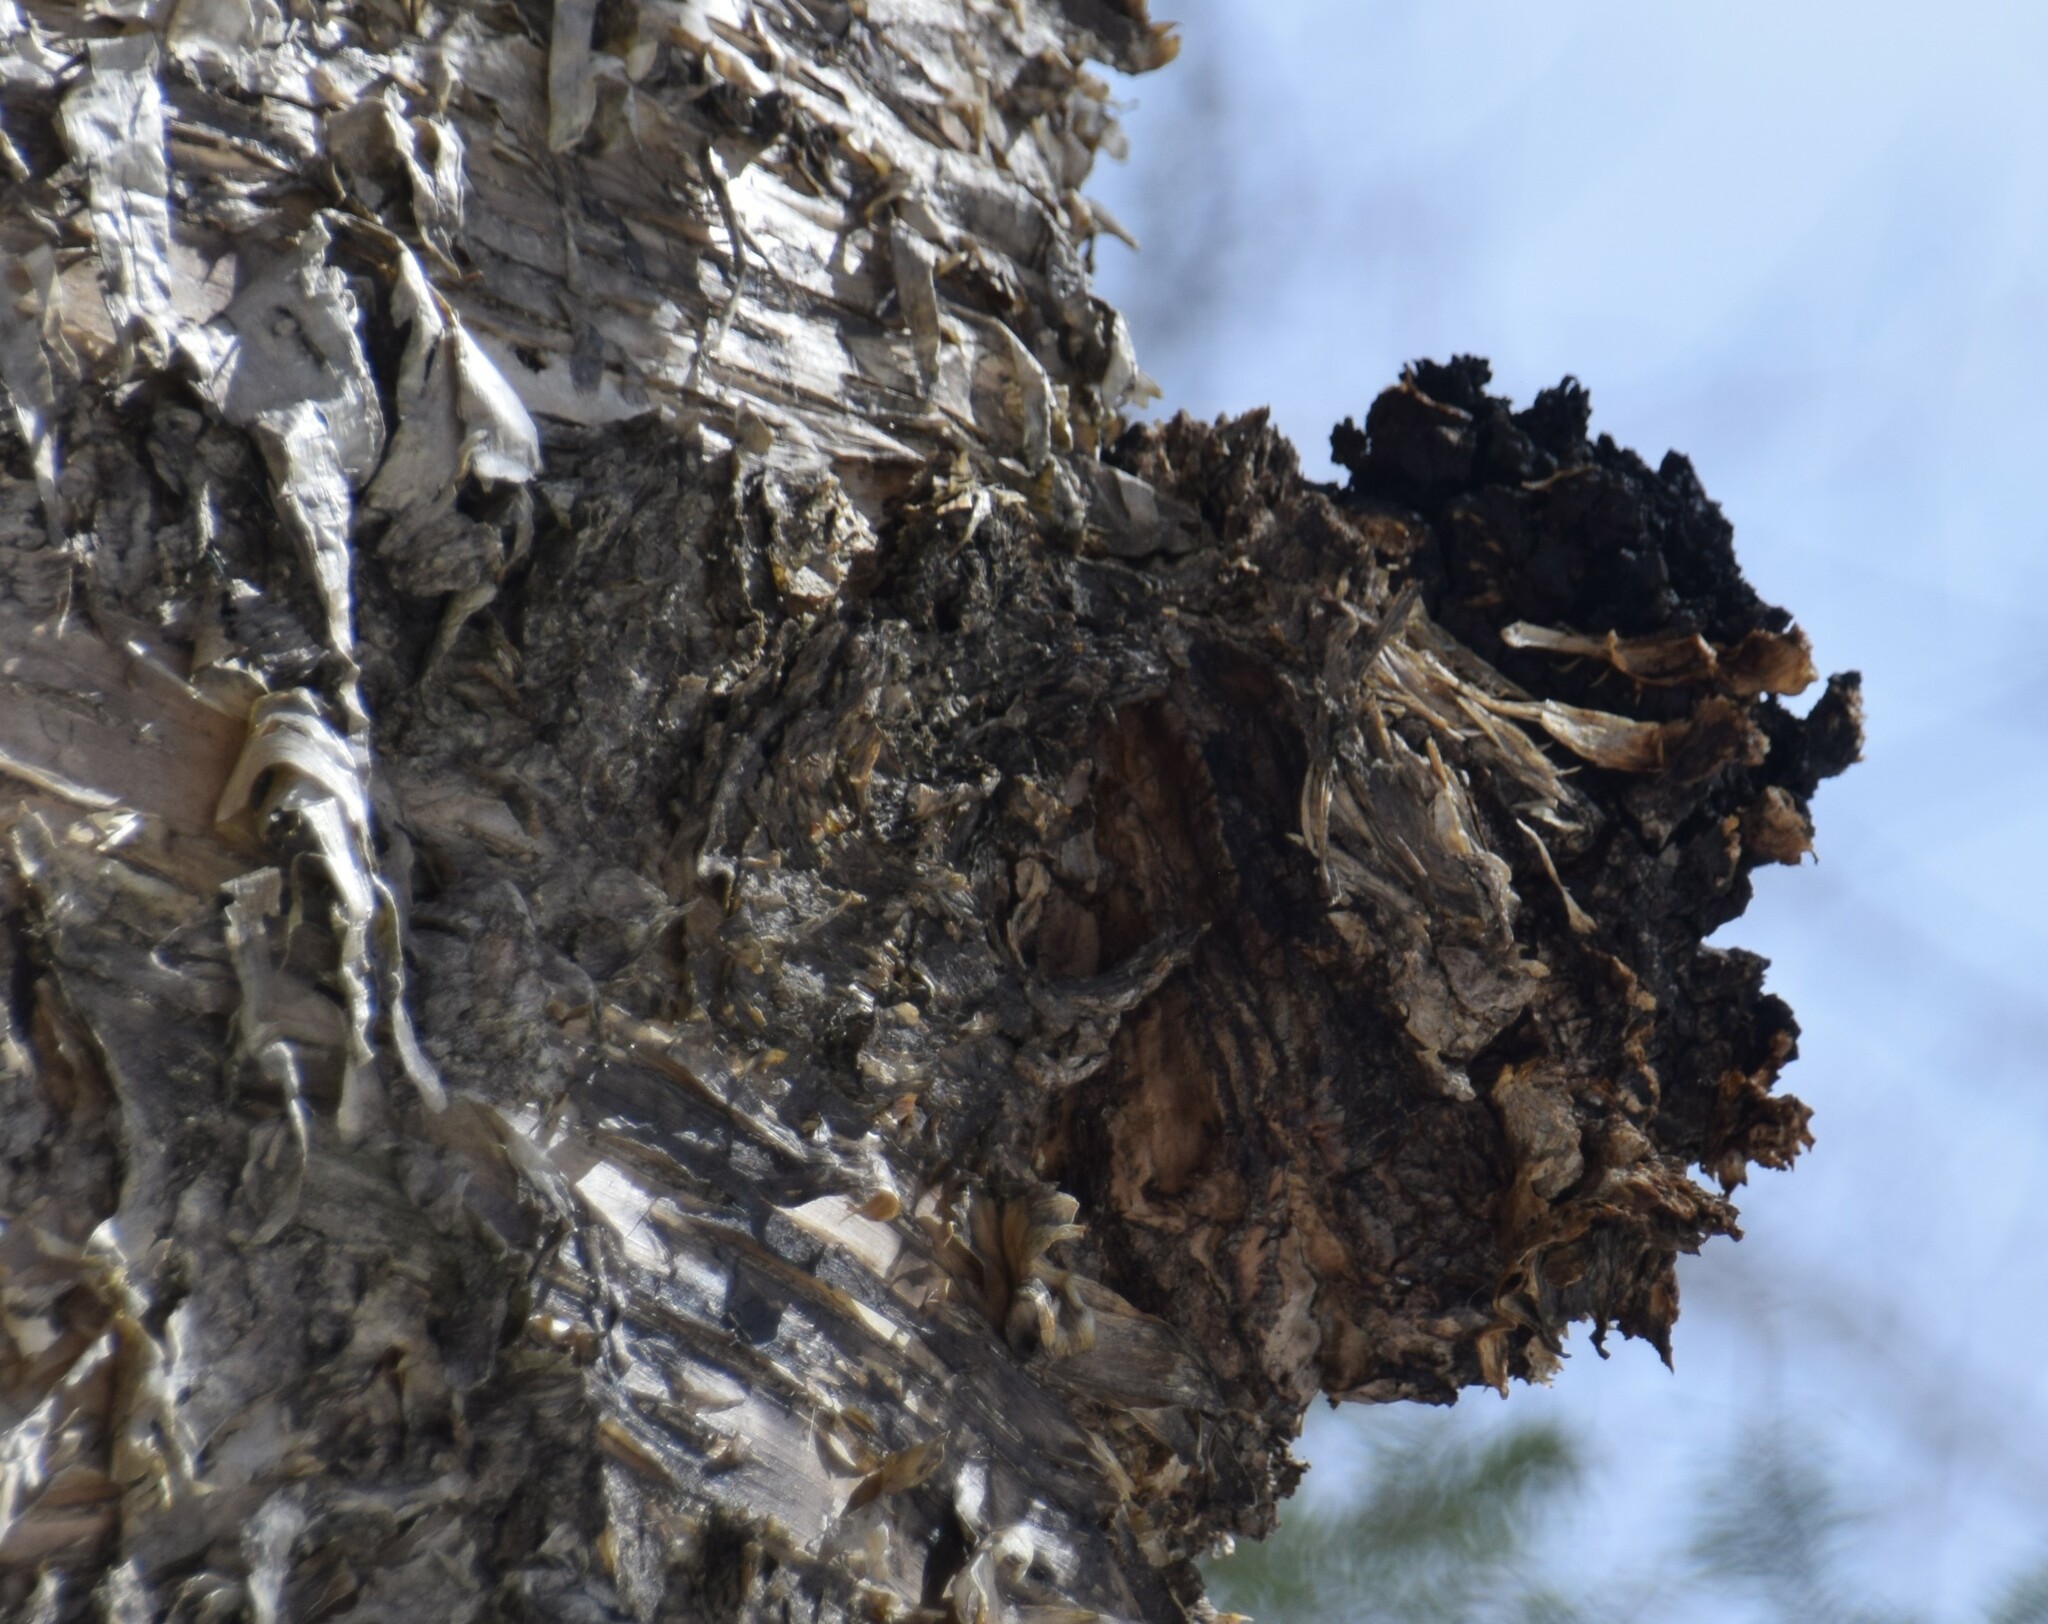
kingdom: Fungi
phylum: Basidiomycota
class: Agaricomycetes
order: Hymenochaetales
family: Hymenochaetaceae
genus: Inonotus
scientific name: Inonotus obliquus
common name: Chaga
